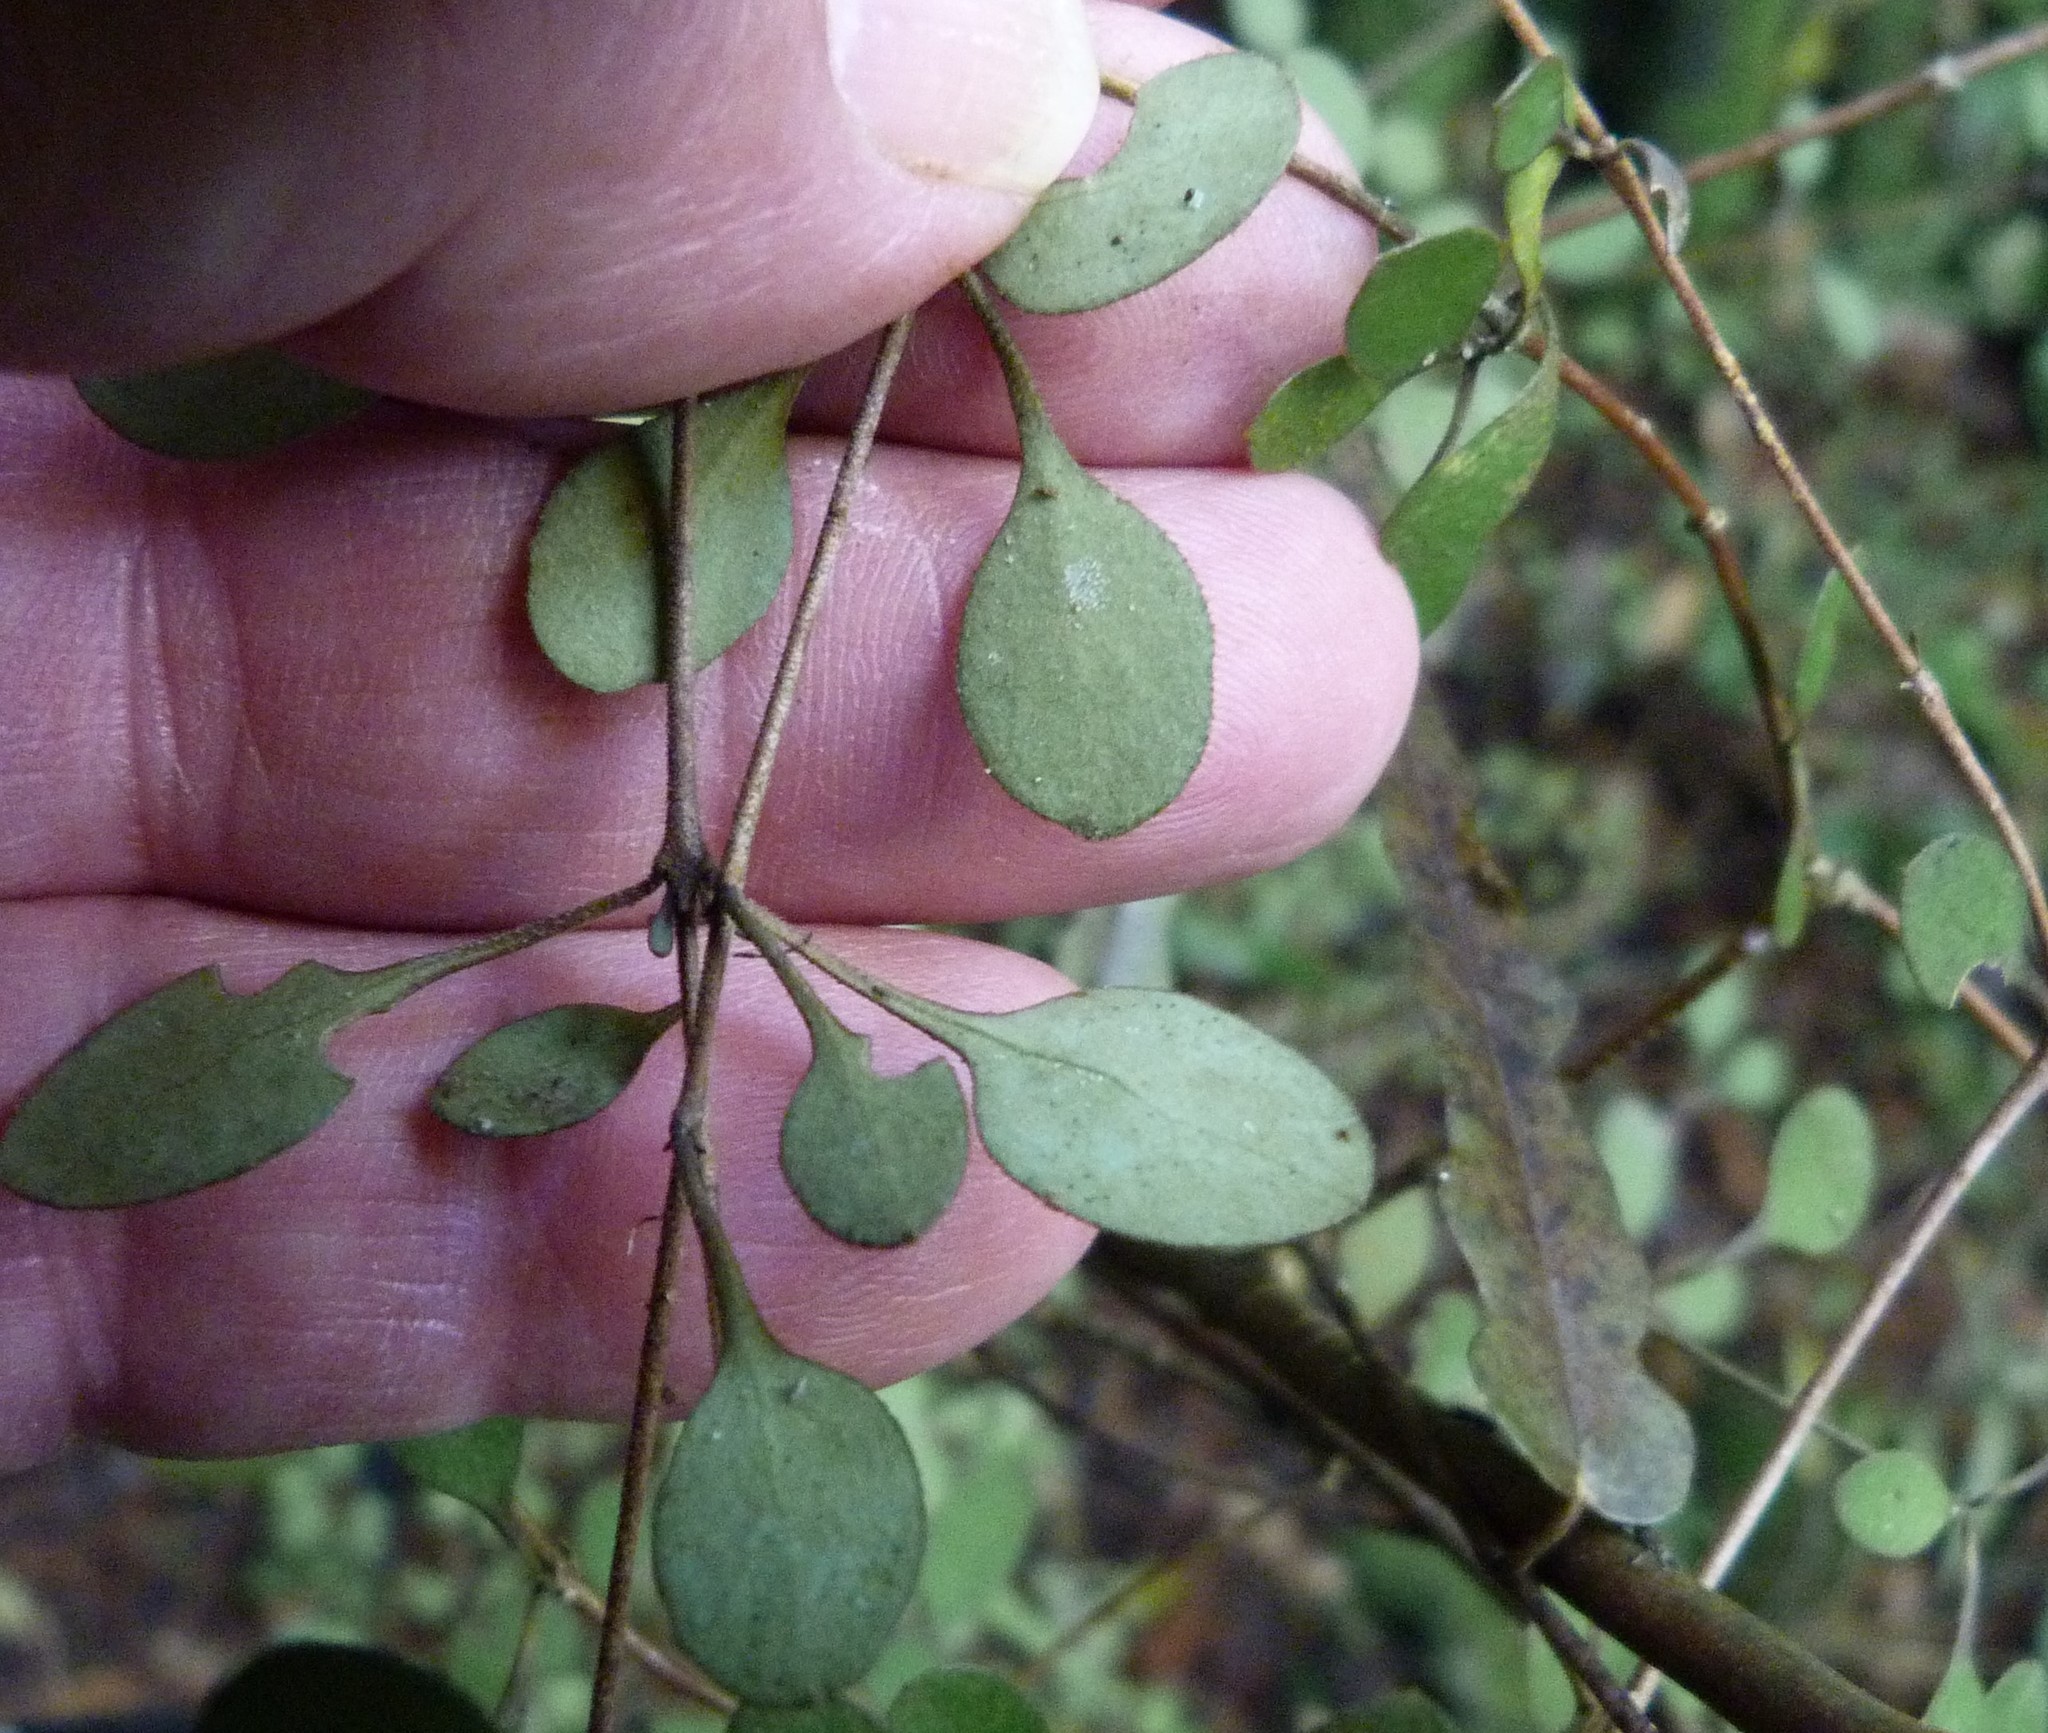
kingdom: Plantae
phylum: Tracheophyta
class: Magnoliopsida
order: Gentianales
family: Rubiaceae
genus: Coprosma
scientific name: Coprosma rubra
